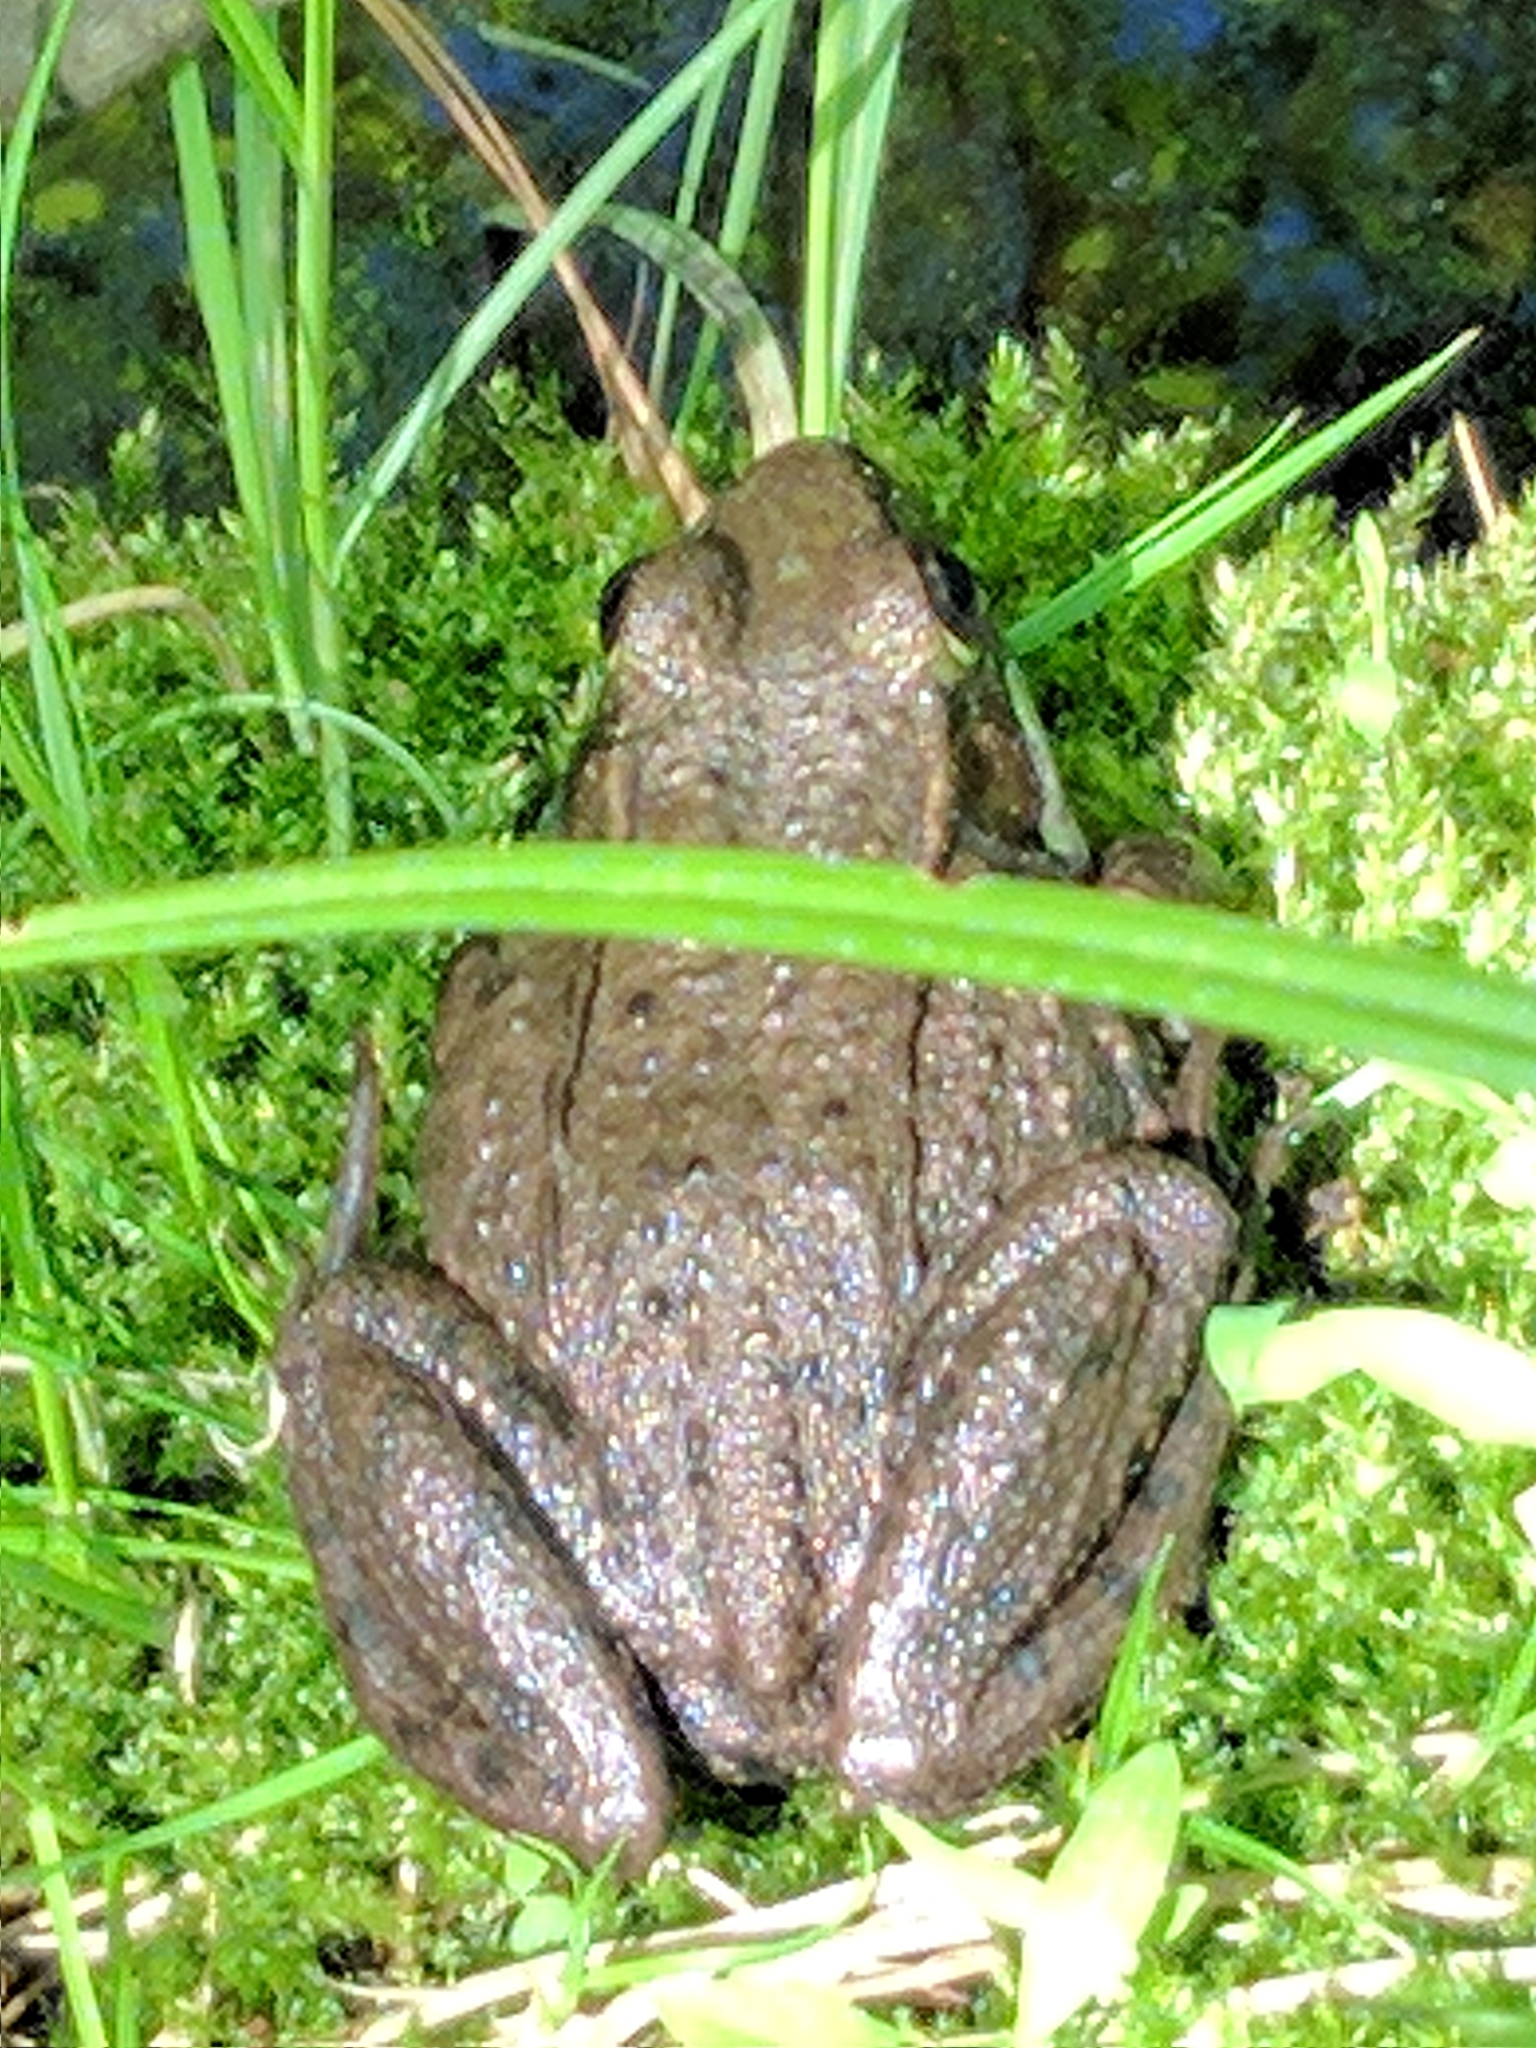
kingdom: Animalia
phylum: Chordata
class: Amphibia
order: Anura
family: Ranidae
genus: Lithobates
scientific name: Lithobates clamitans
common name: Green frog
